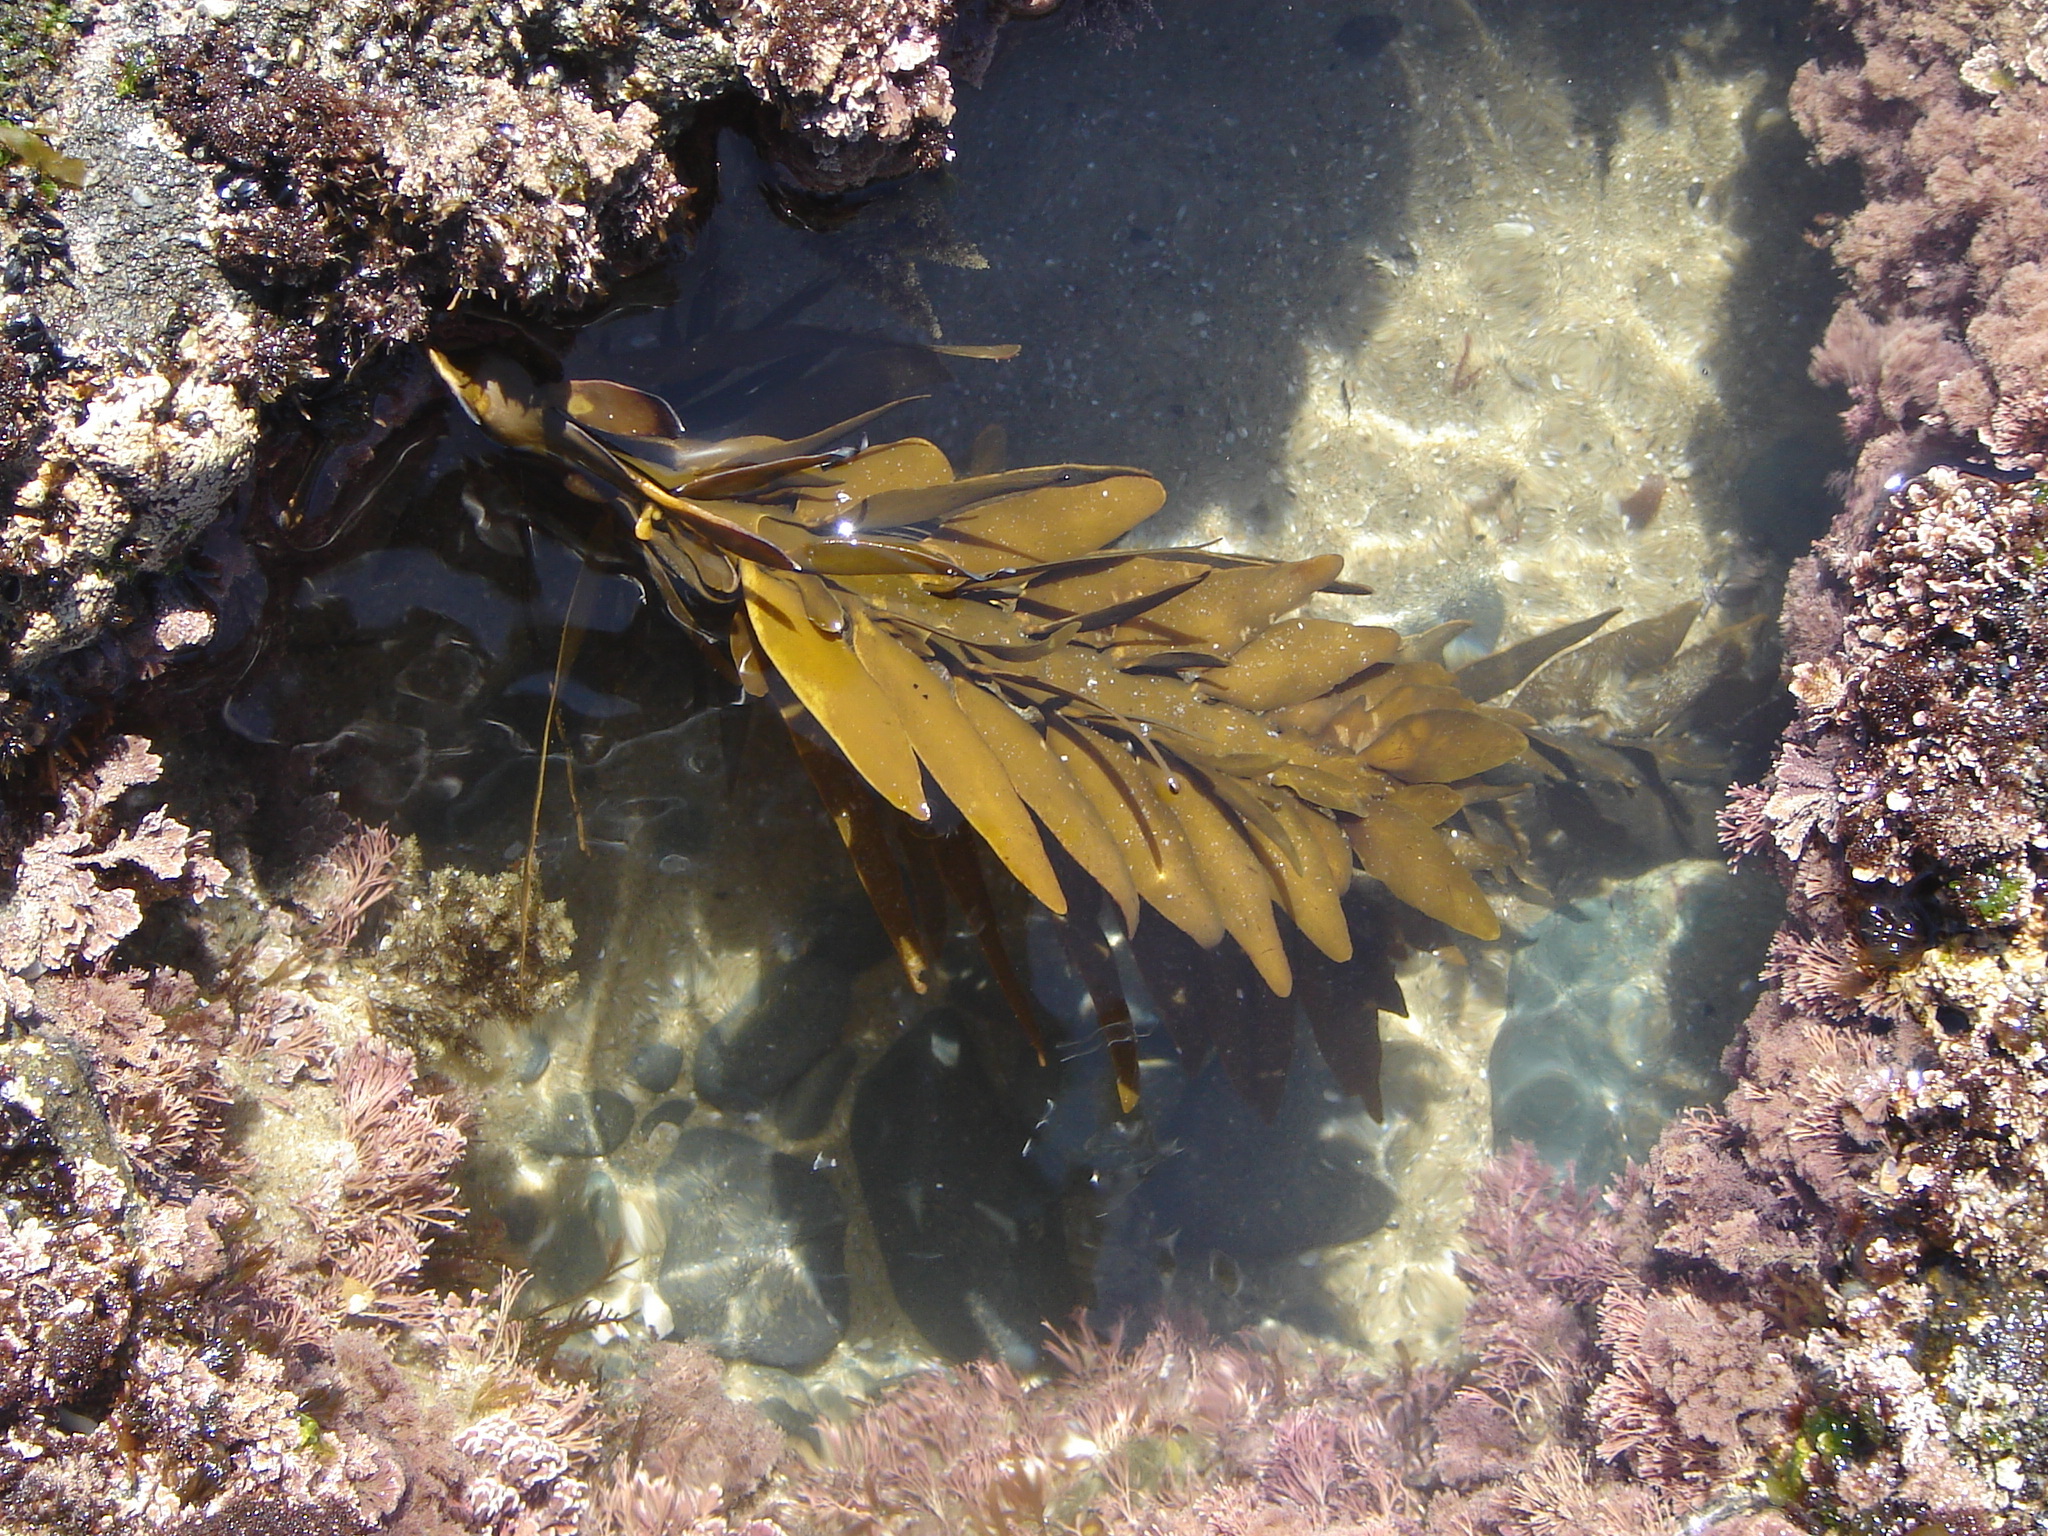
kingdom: Chromista
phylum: Ochrophyta
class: Phaeophyceae
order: Fucales
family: Sargassaceae
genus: Carpophyllum
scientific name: Carpophyllum maschalocarpum
